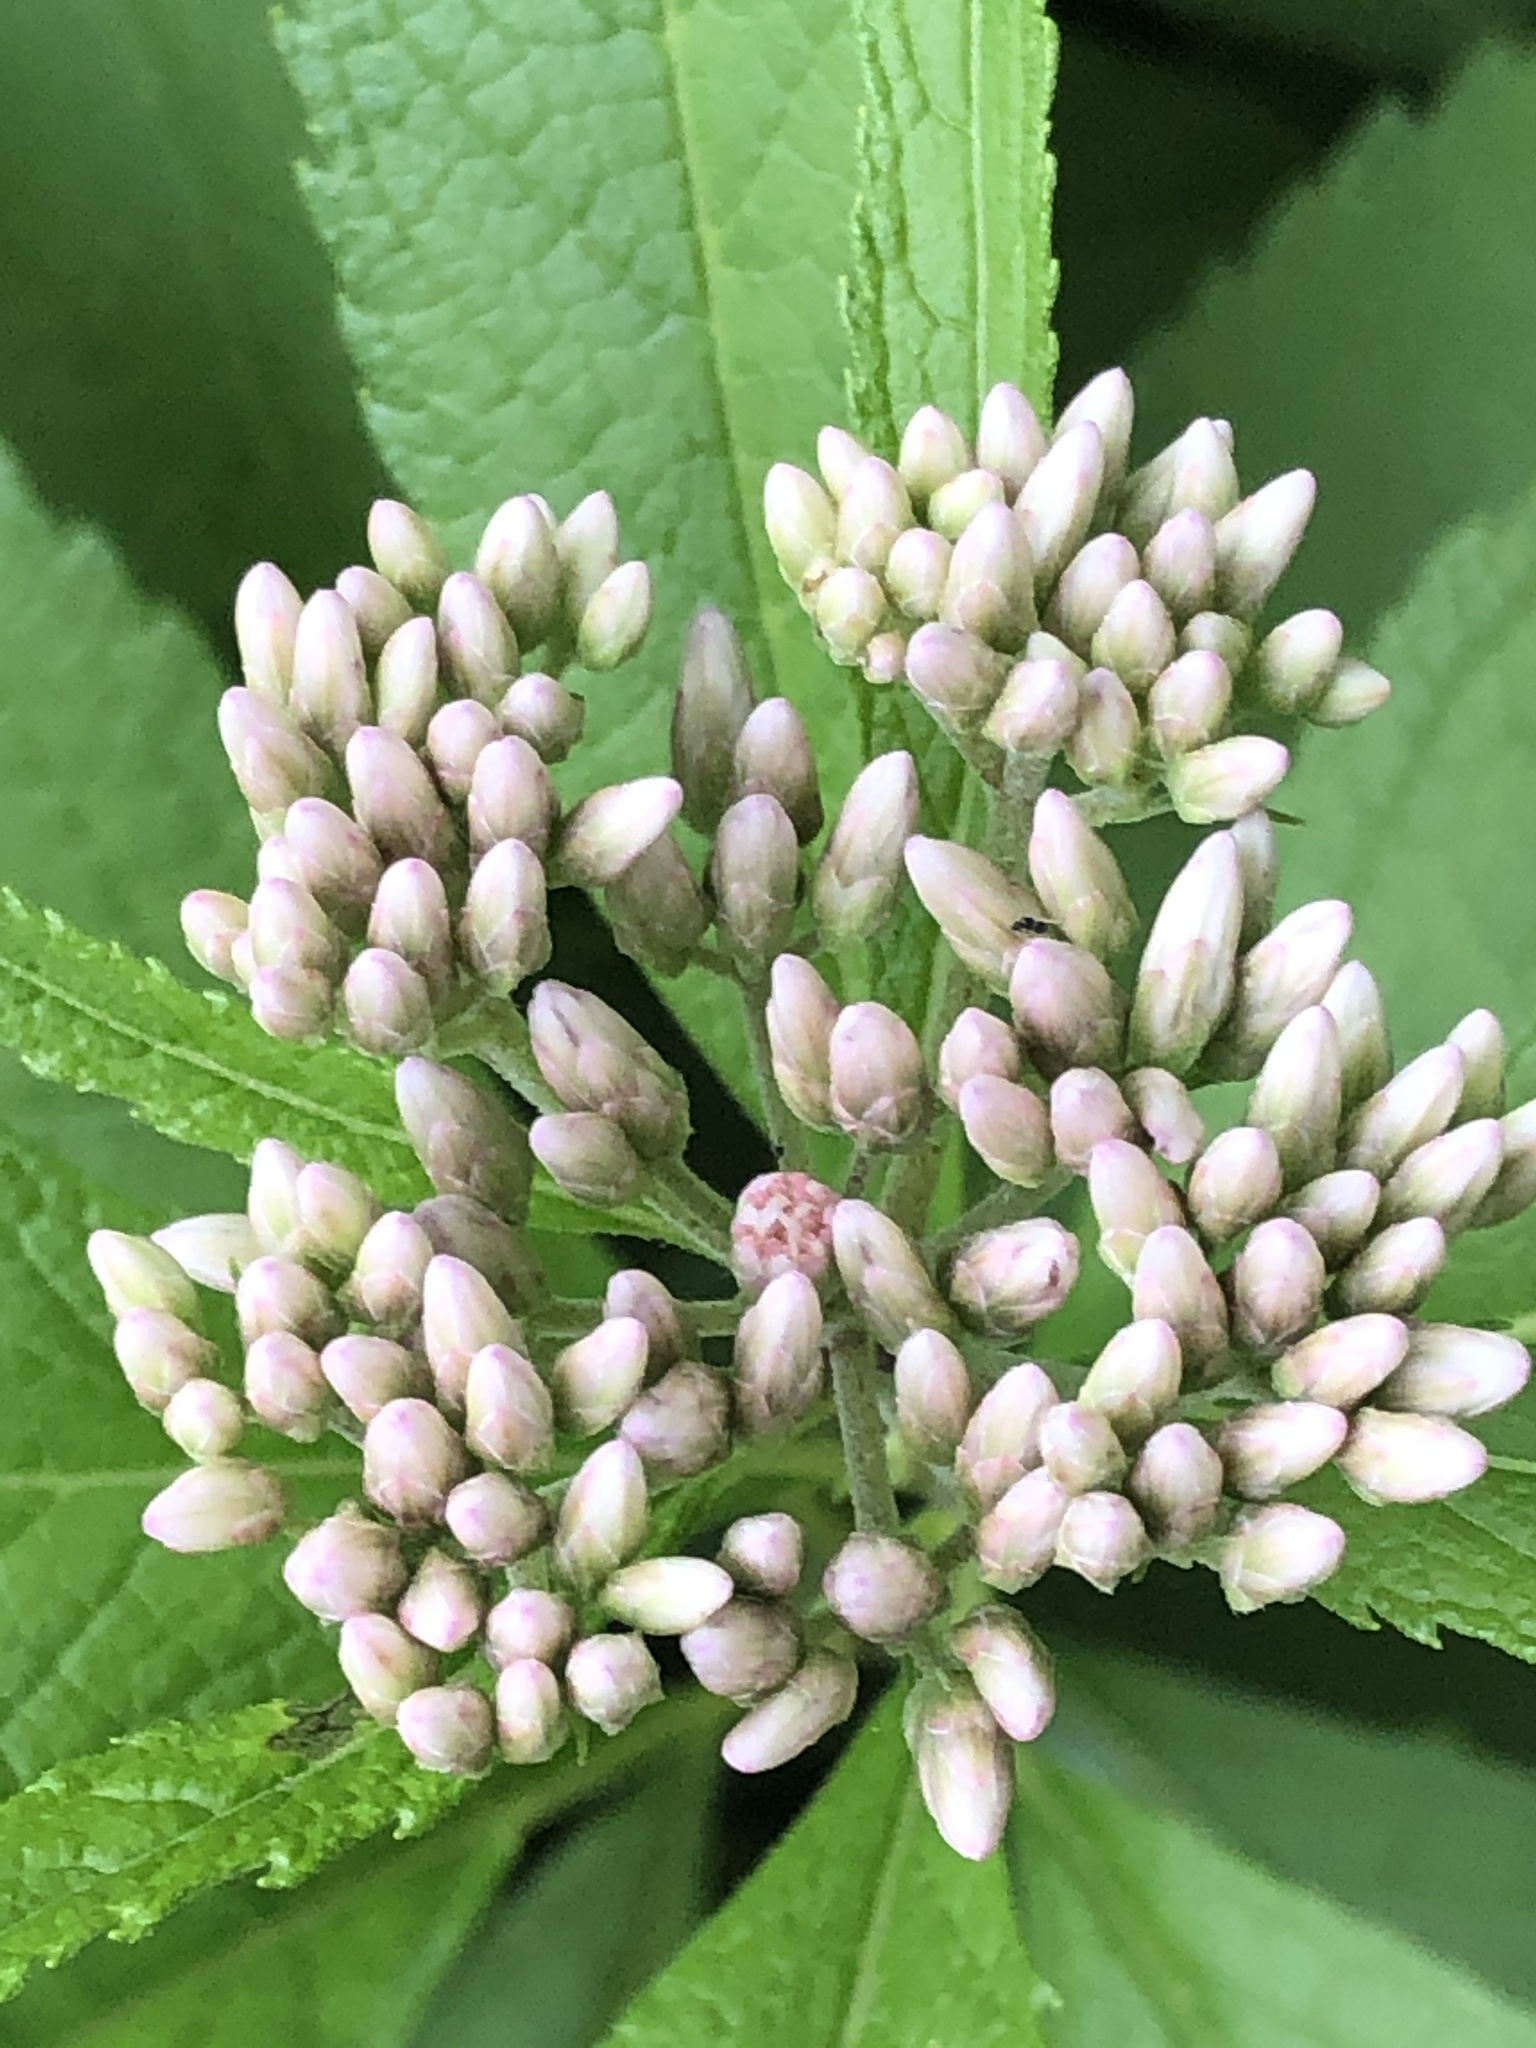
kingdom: Plantae
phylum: Tracheophyta
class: Magnoliopsida
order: Asterales
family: Asteraceae
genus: Eutrochium
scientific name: Eutrochium maculatum
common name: Spotted joe pye weed
